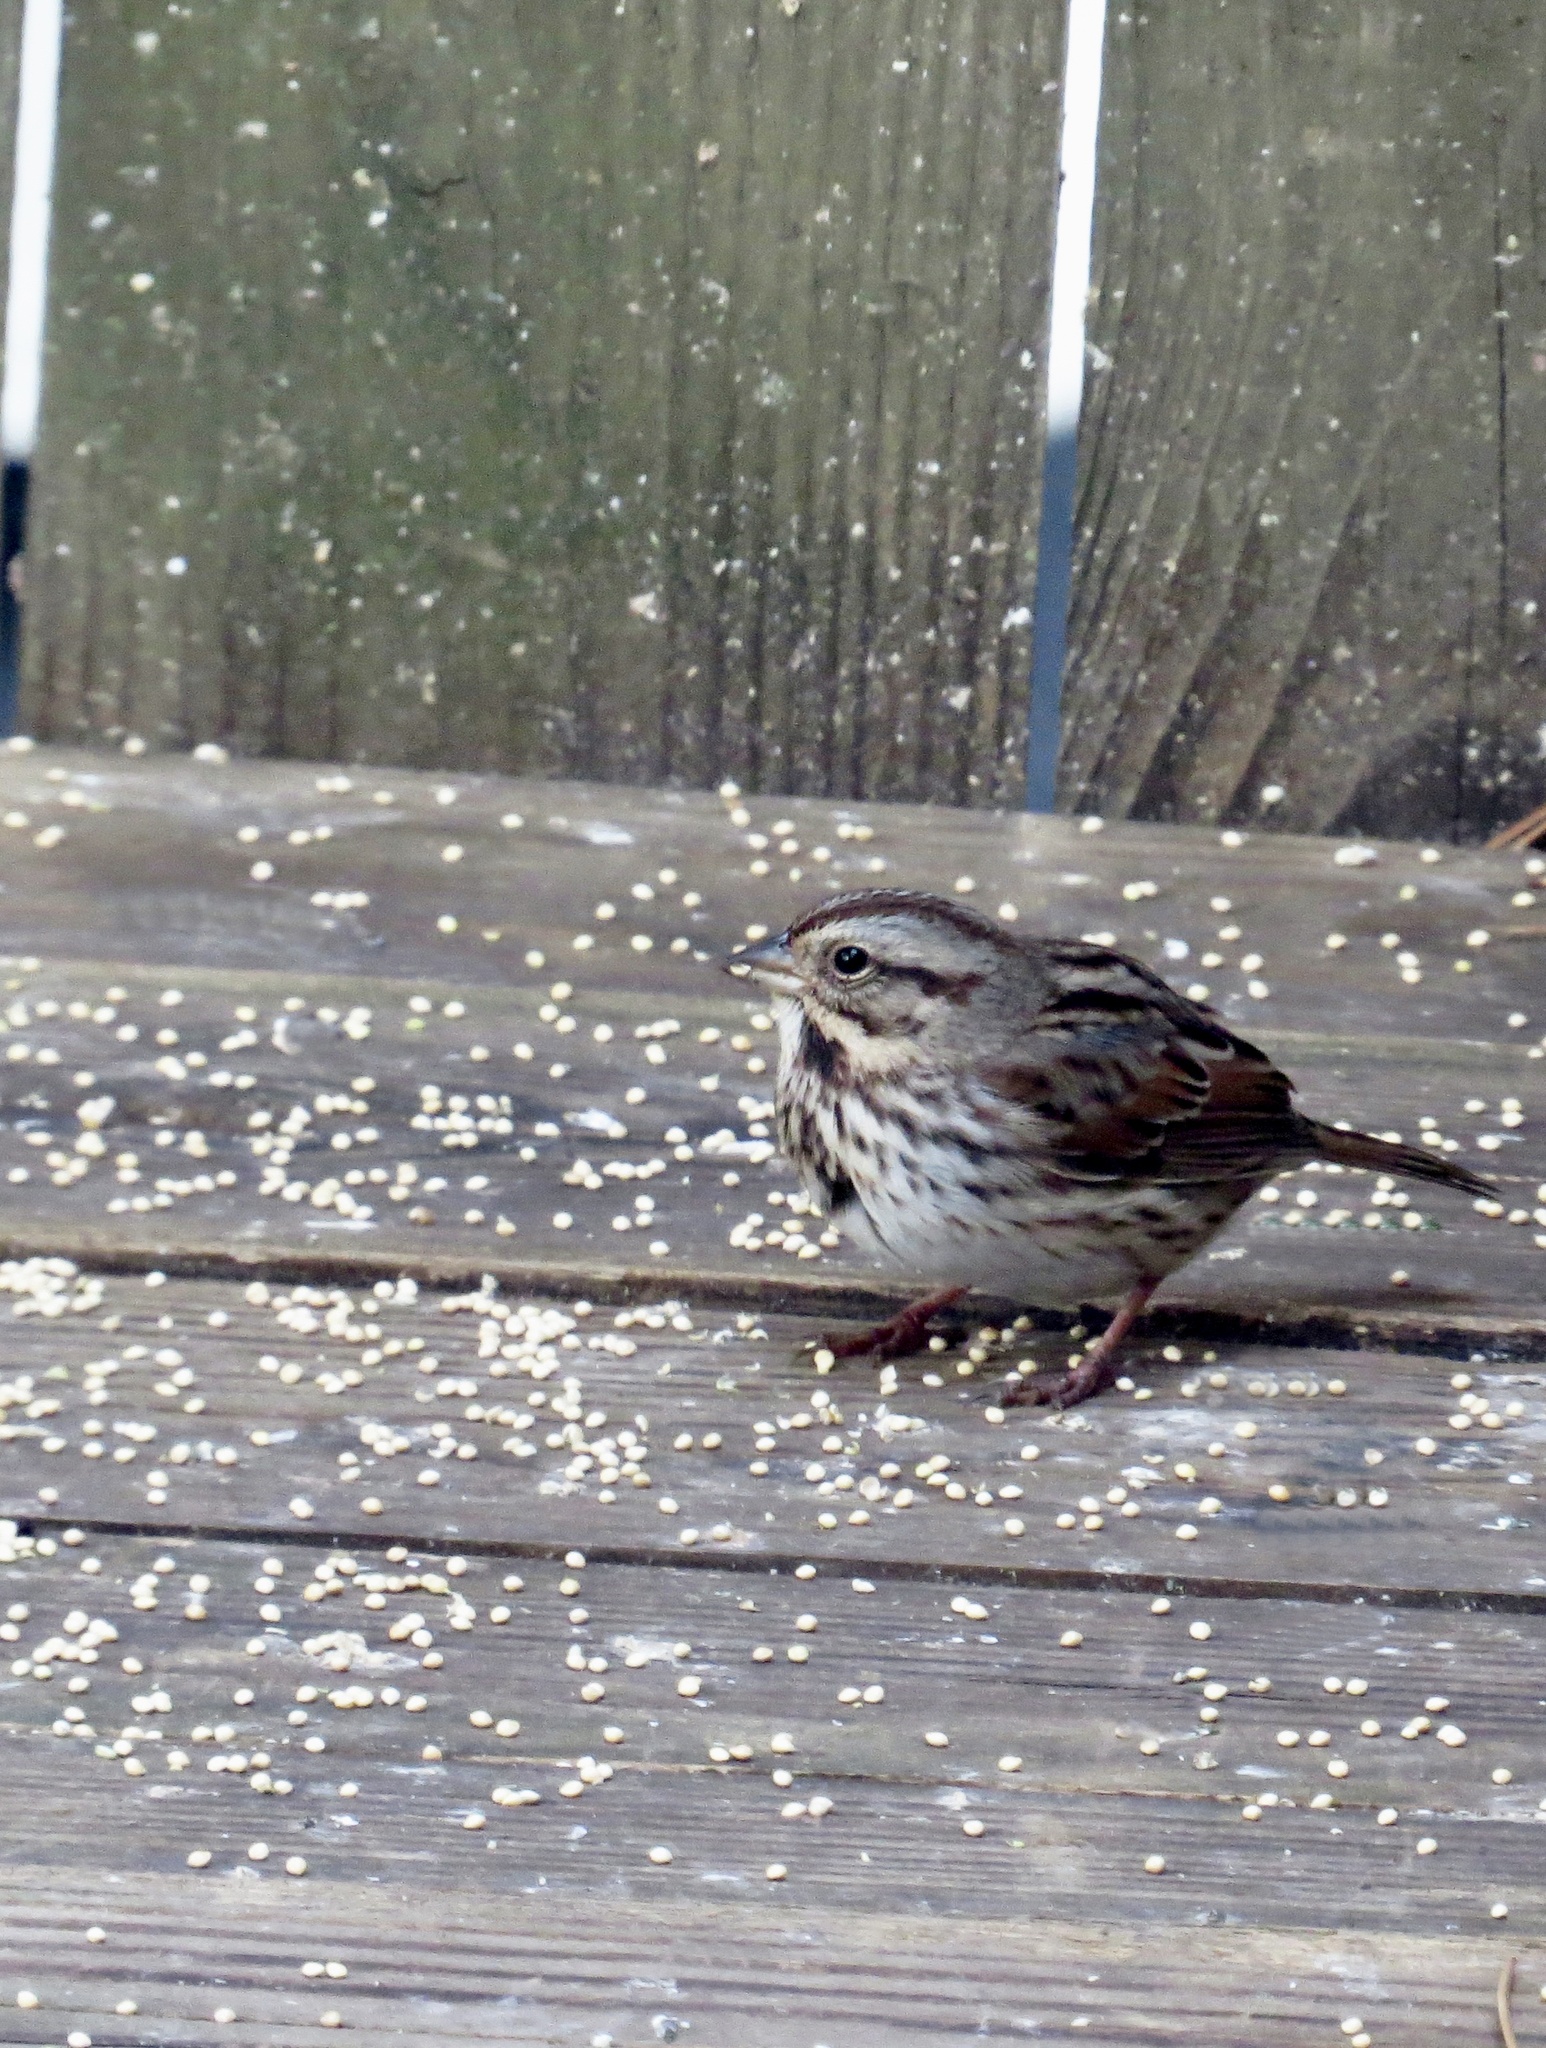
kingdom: Animalia
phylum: Chordata
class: Aves
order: Passeriformes
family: Passerellidae
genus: Melospiza
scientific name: Melospiza melodia
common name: Song sparrow
